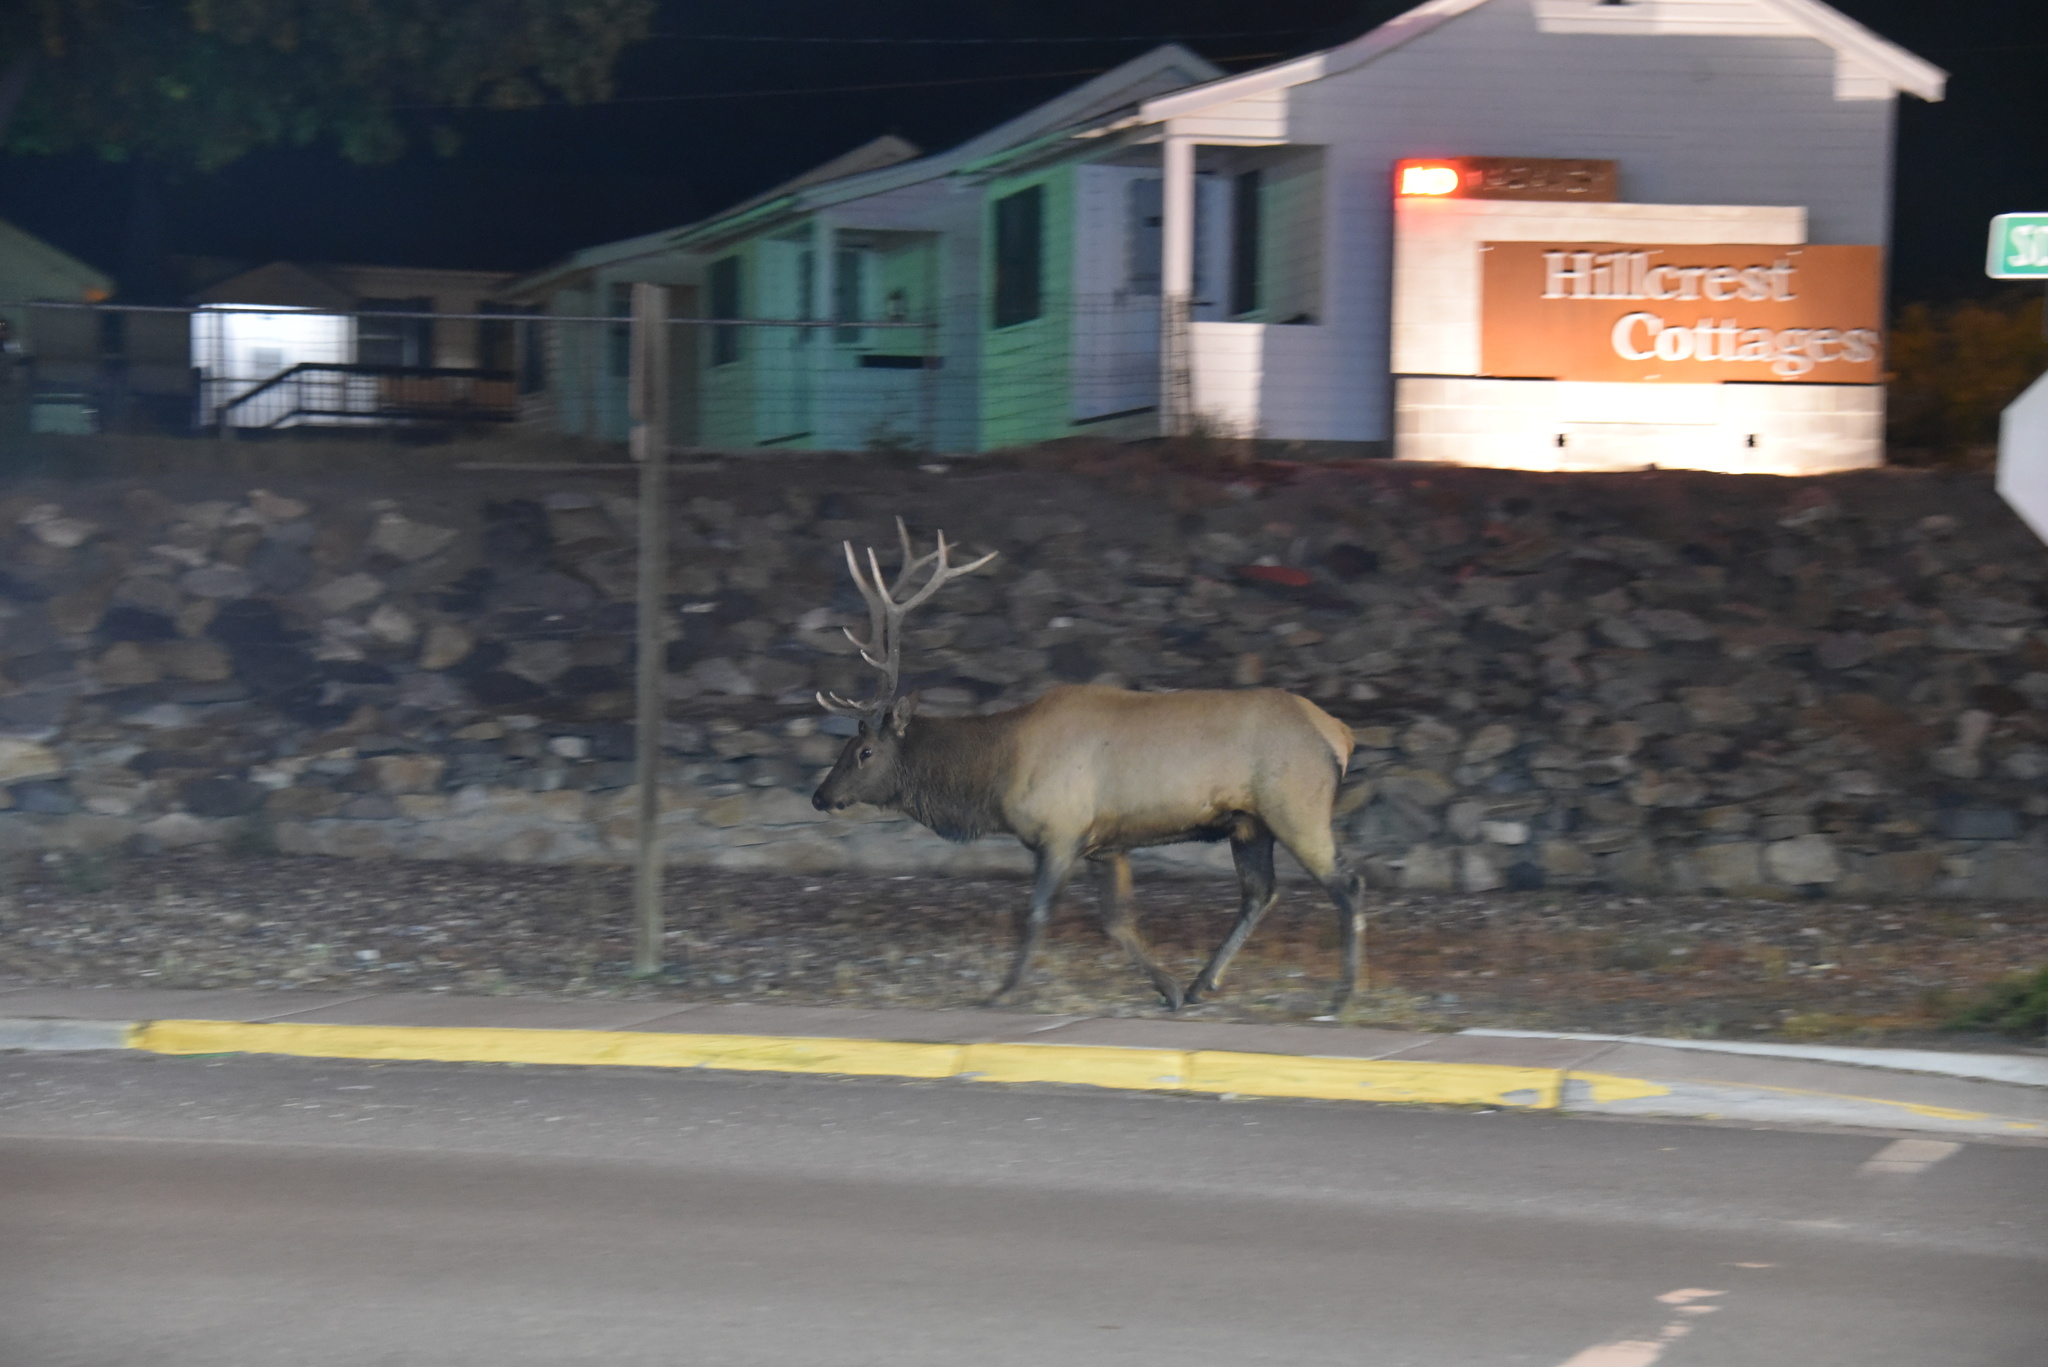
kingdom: Animalia
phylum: Chordata
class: Mammalia
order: Artiodactyla
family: Cervidae
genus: Cervus
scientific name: Cervus elaphus
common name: Red deer
